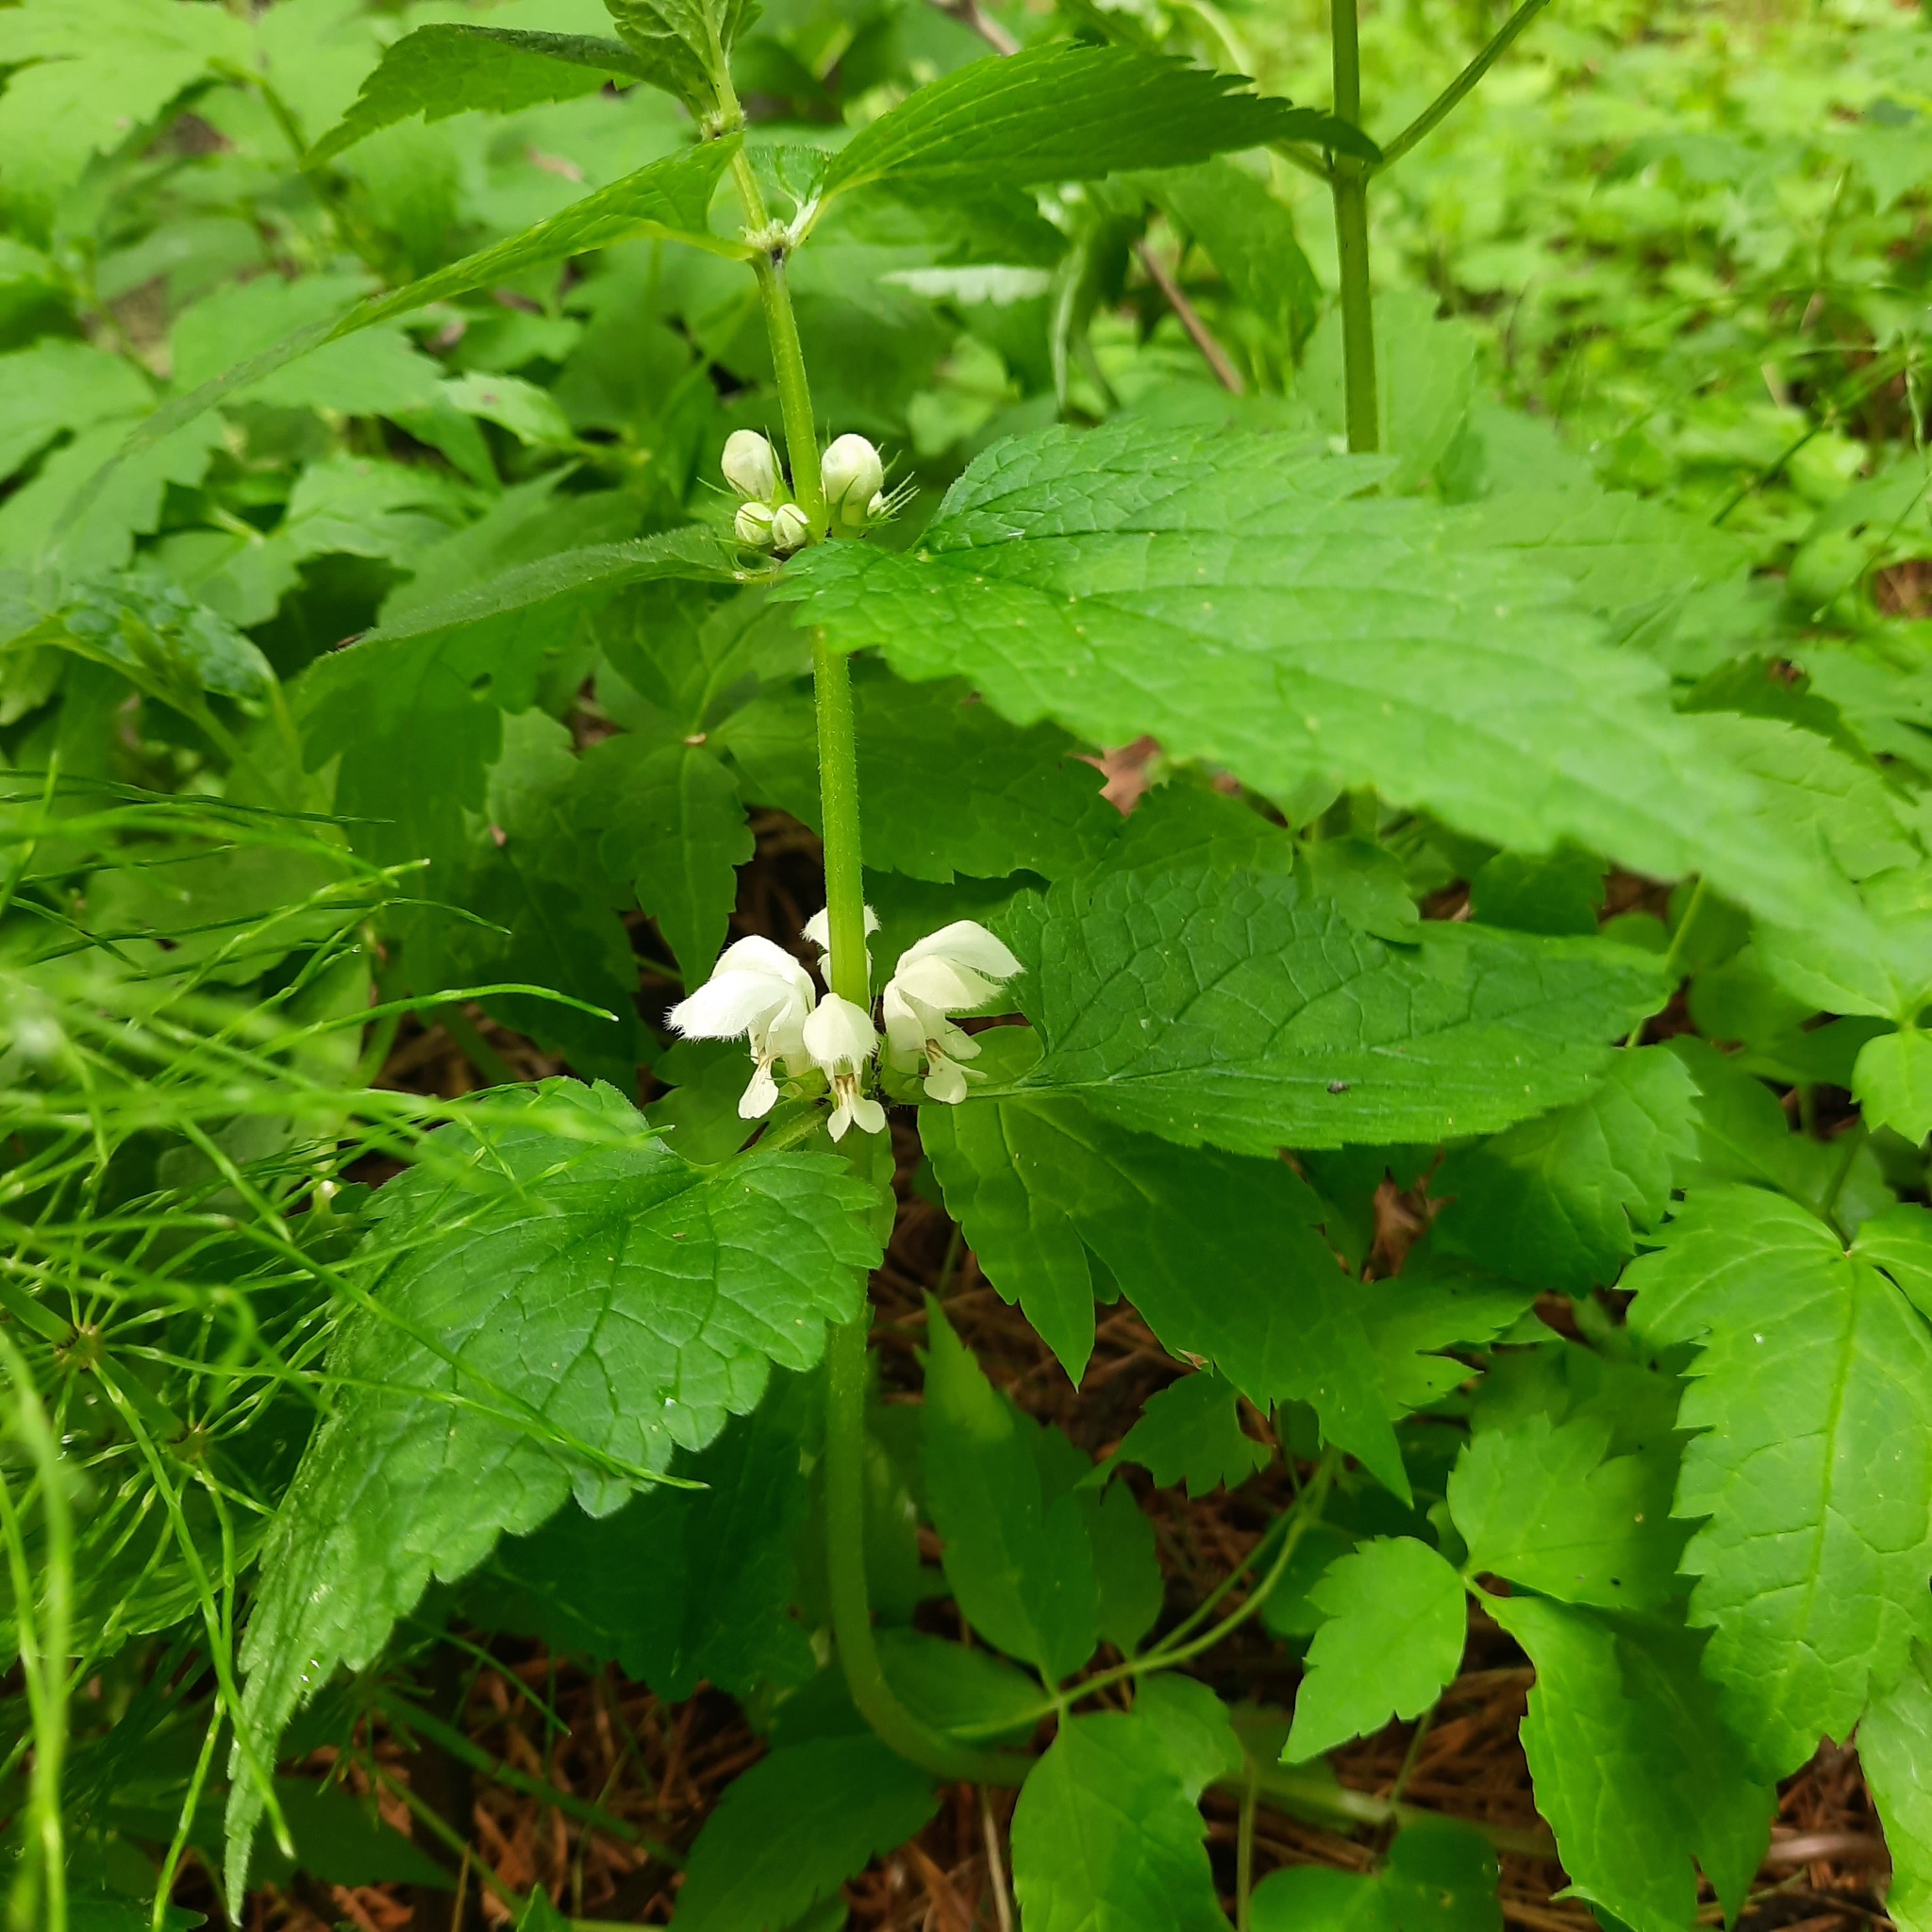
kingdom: Plantae
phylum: Tracheophyta
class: Magnoliopsida
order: Lamiales
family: Lamiaceae
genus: Lamium
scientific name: Lamium album
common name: White dead-nettle
